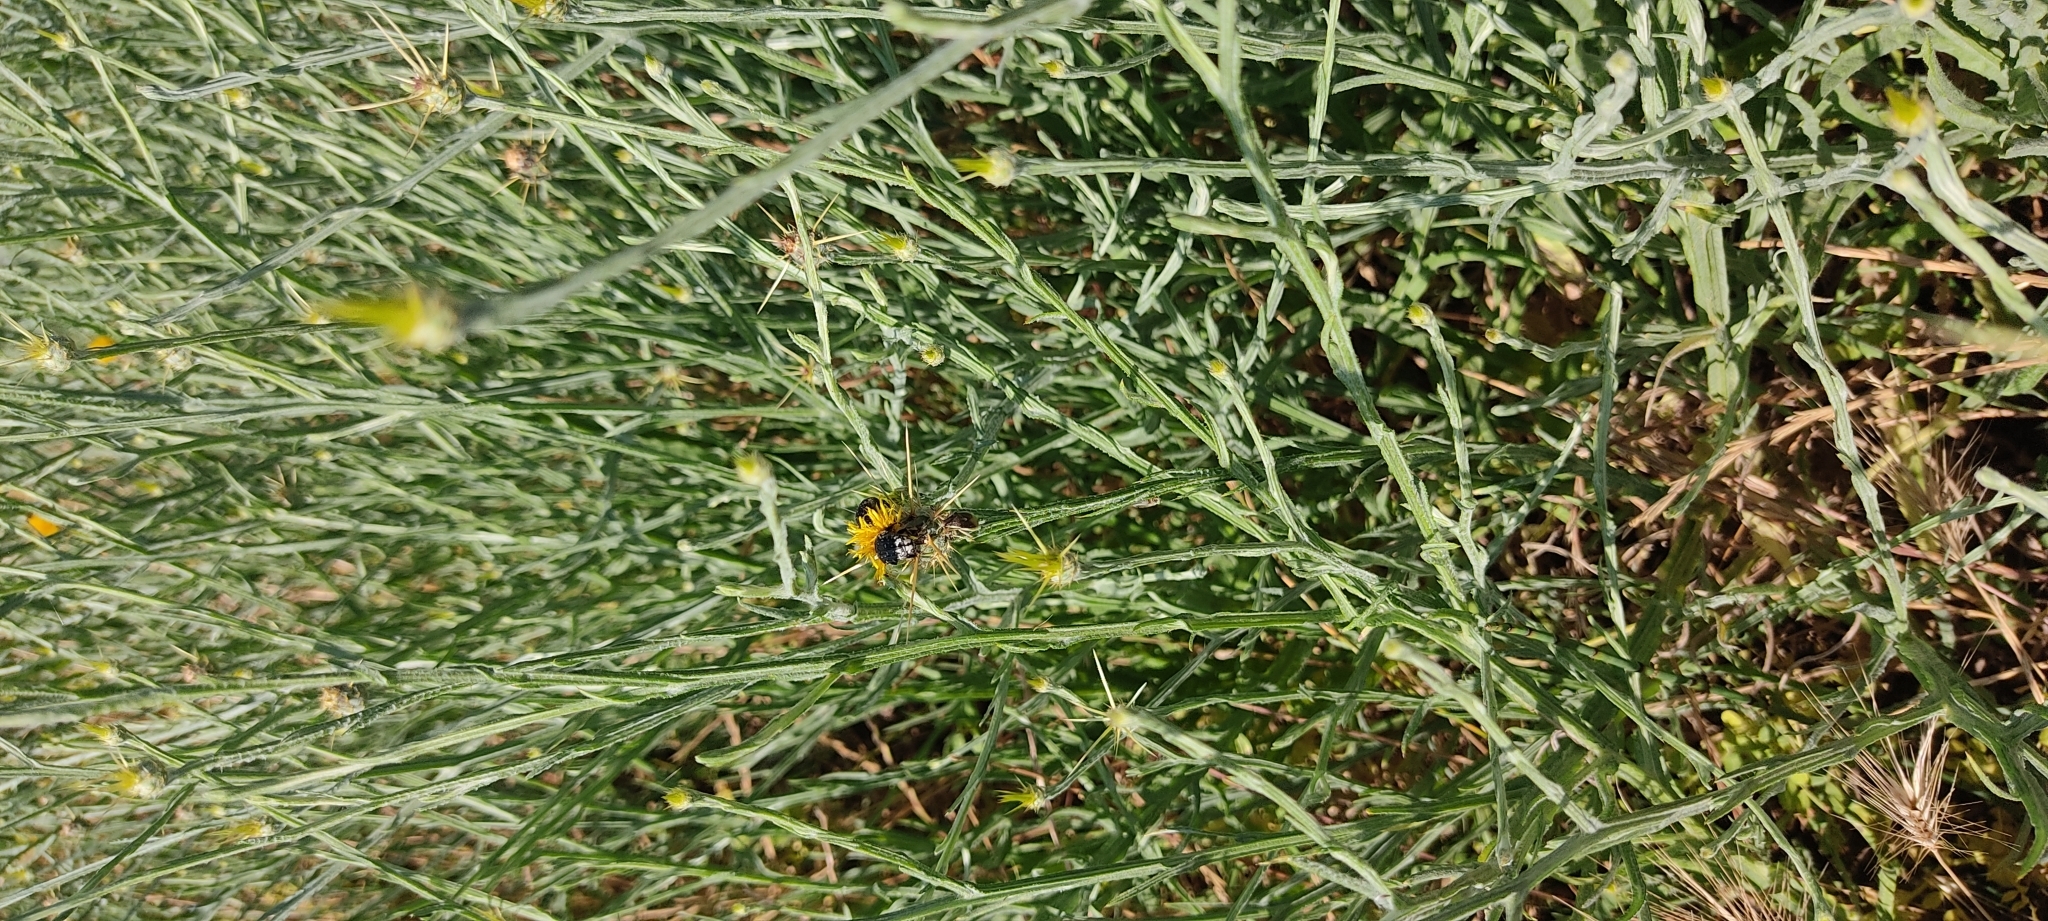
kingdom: Animalia
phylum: Arthropoda
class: Insecta
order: Coleoptera
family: Scarabaeidae
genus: Oxythyrea
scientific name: Oxythyrea funesta
